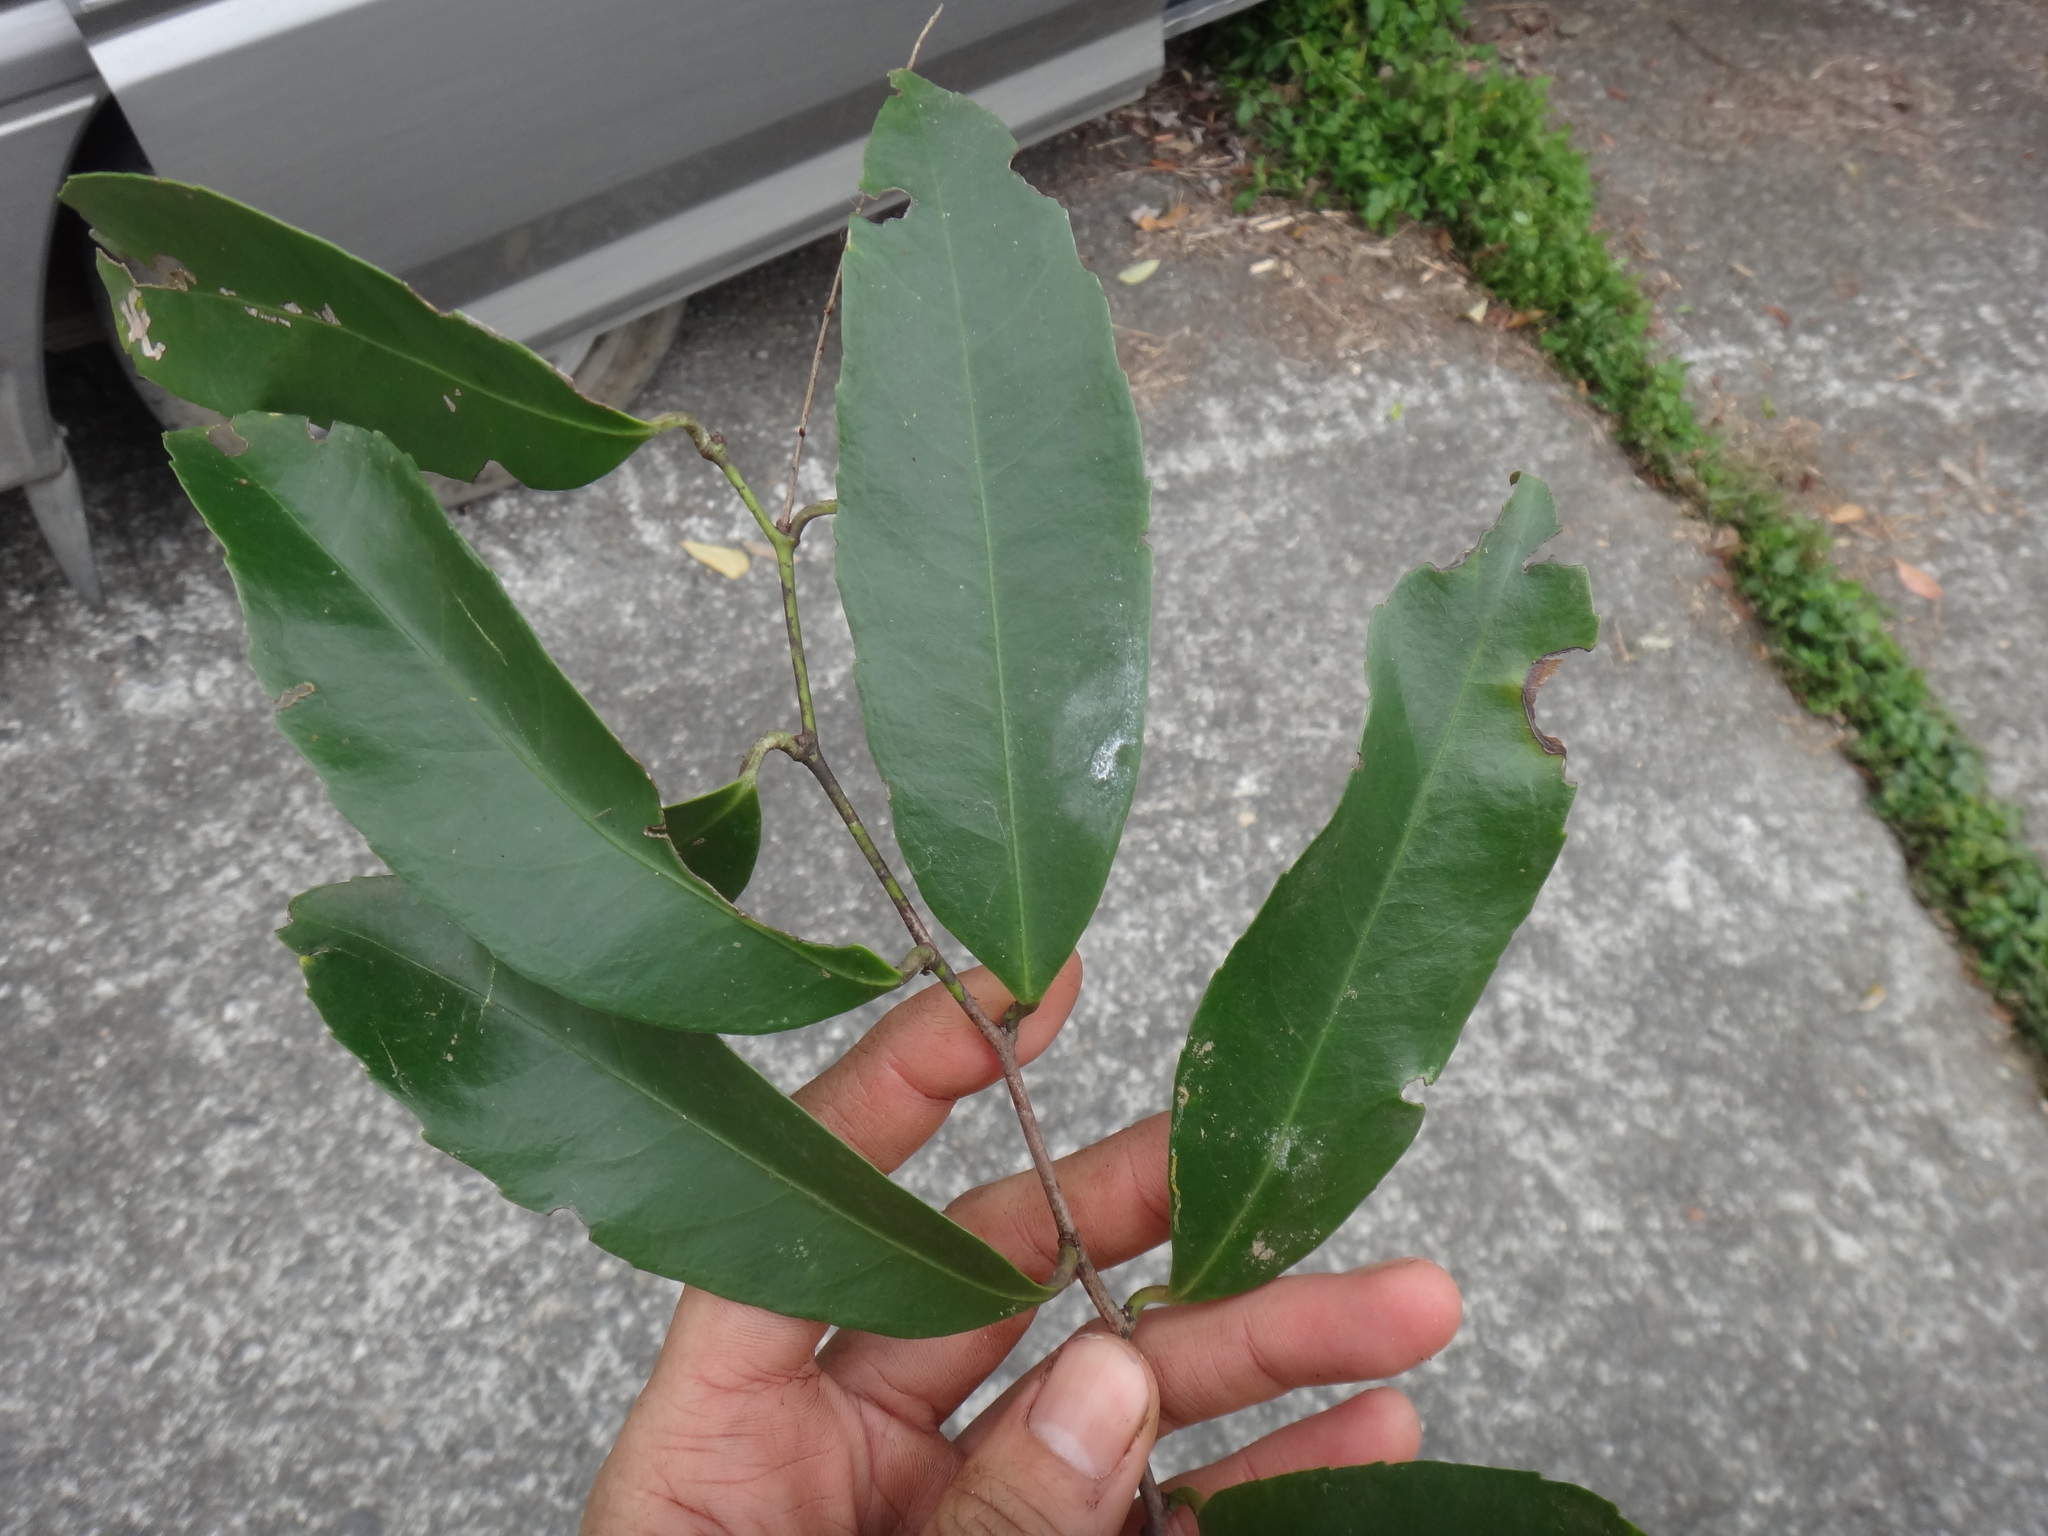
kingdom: Plantae
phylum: Tracheophyta
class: Magnoliopsida
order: Celastrales
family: Celastraceae
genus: Celastrus
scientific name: Celastrus hindsii
